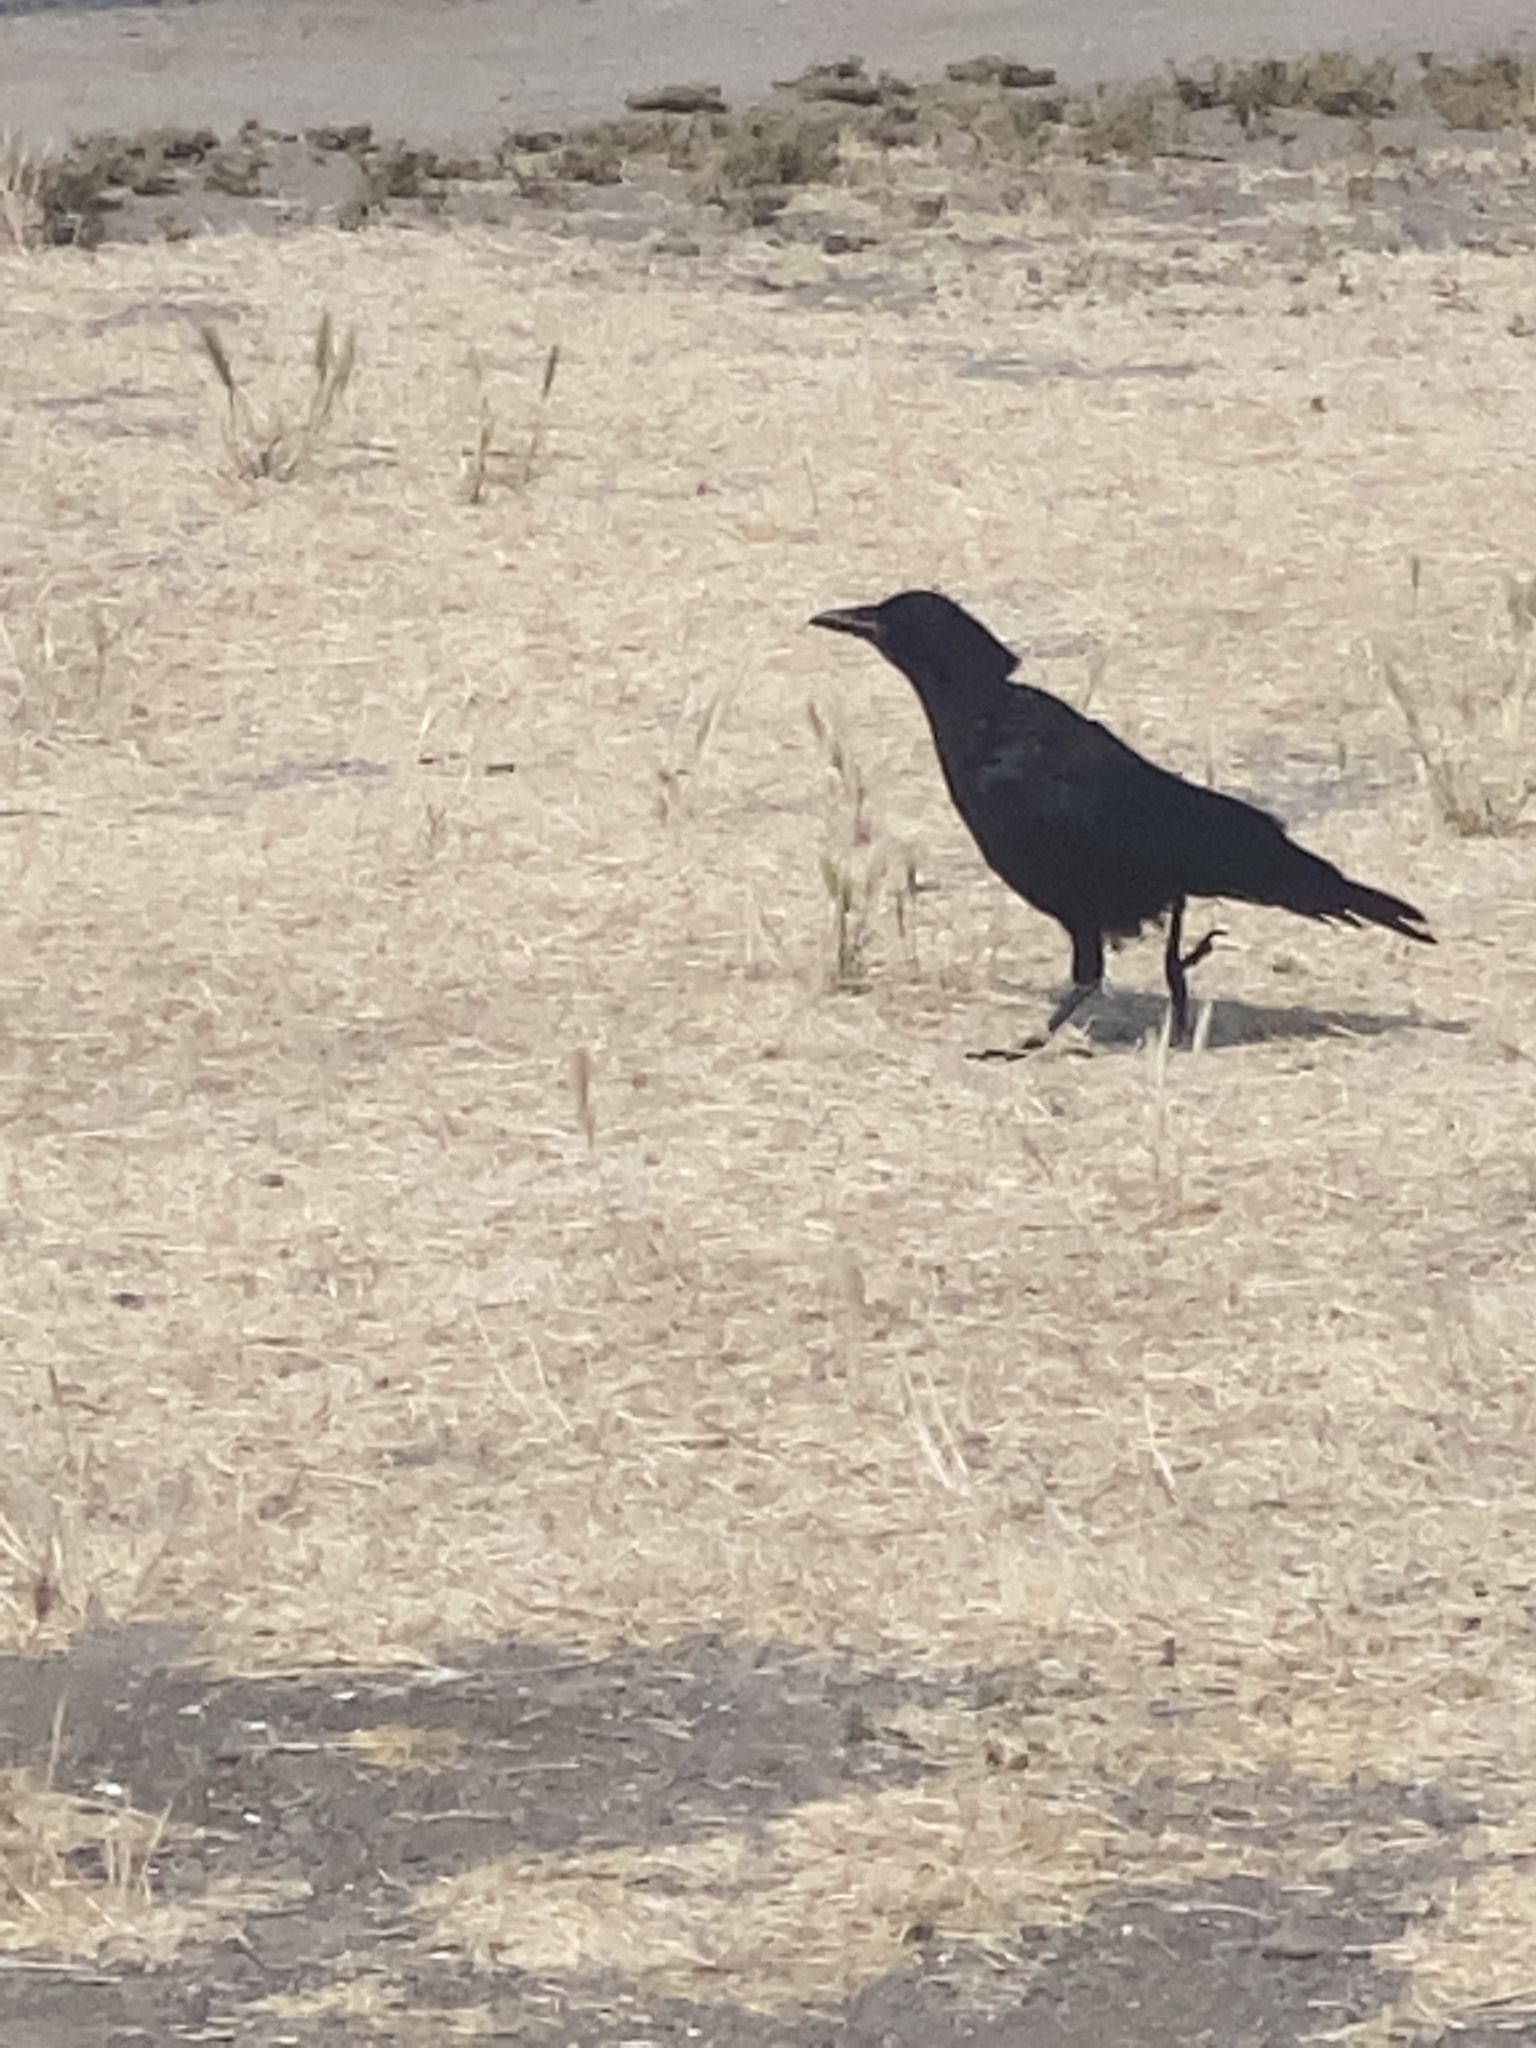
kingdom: Animalia
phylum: Chordata
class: Aves
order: Passeriformes
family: Corvidae
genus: Corvus
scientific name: Corvus brachyrhynchos
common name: American crow
